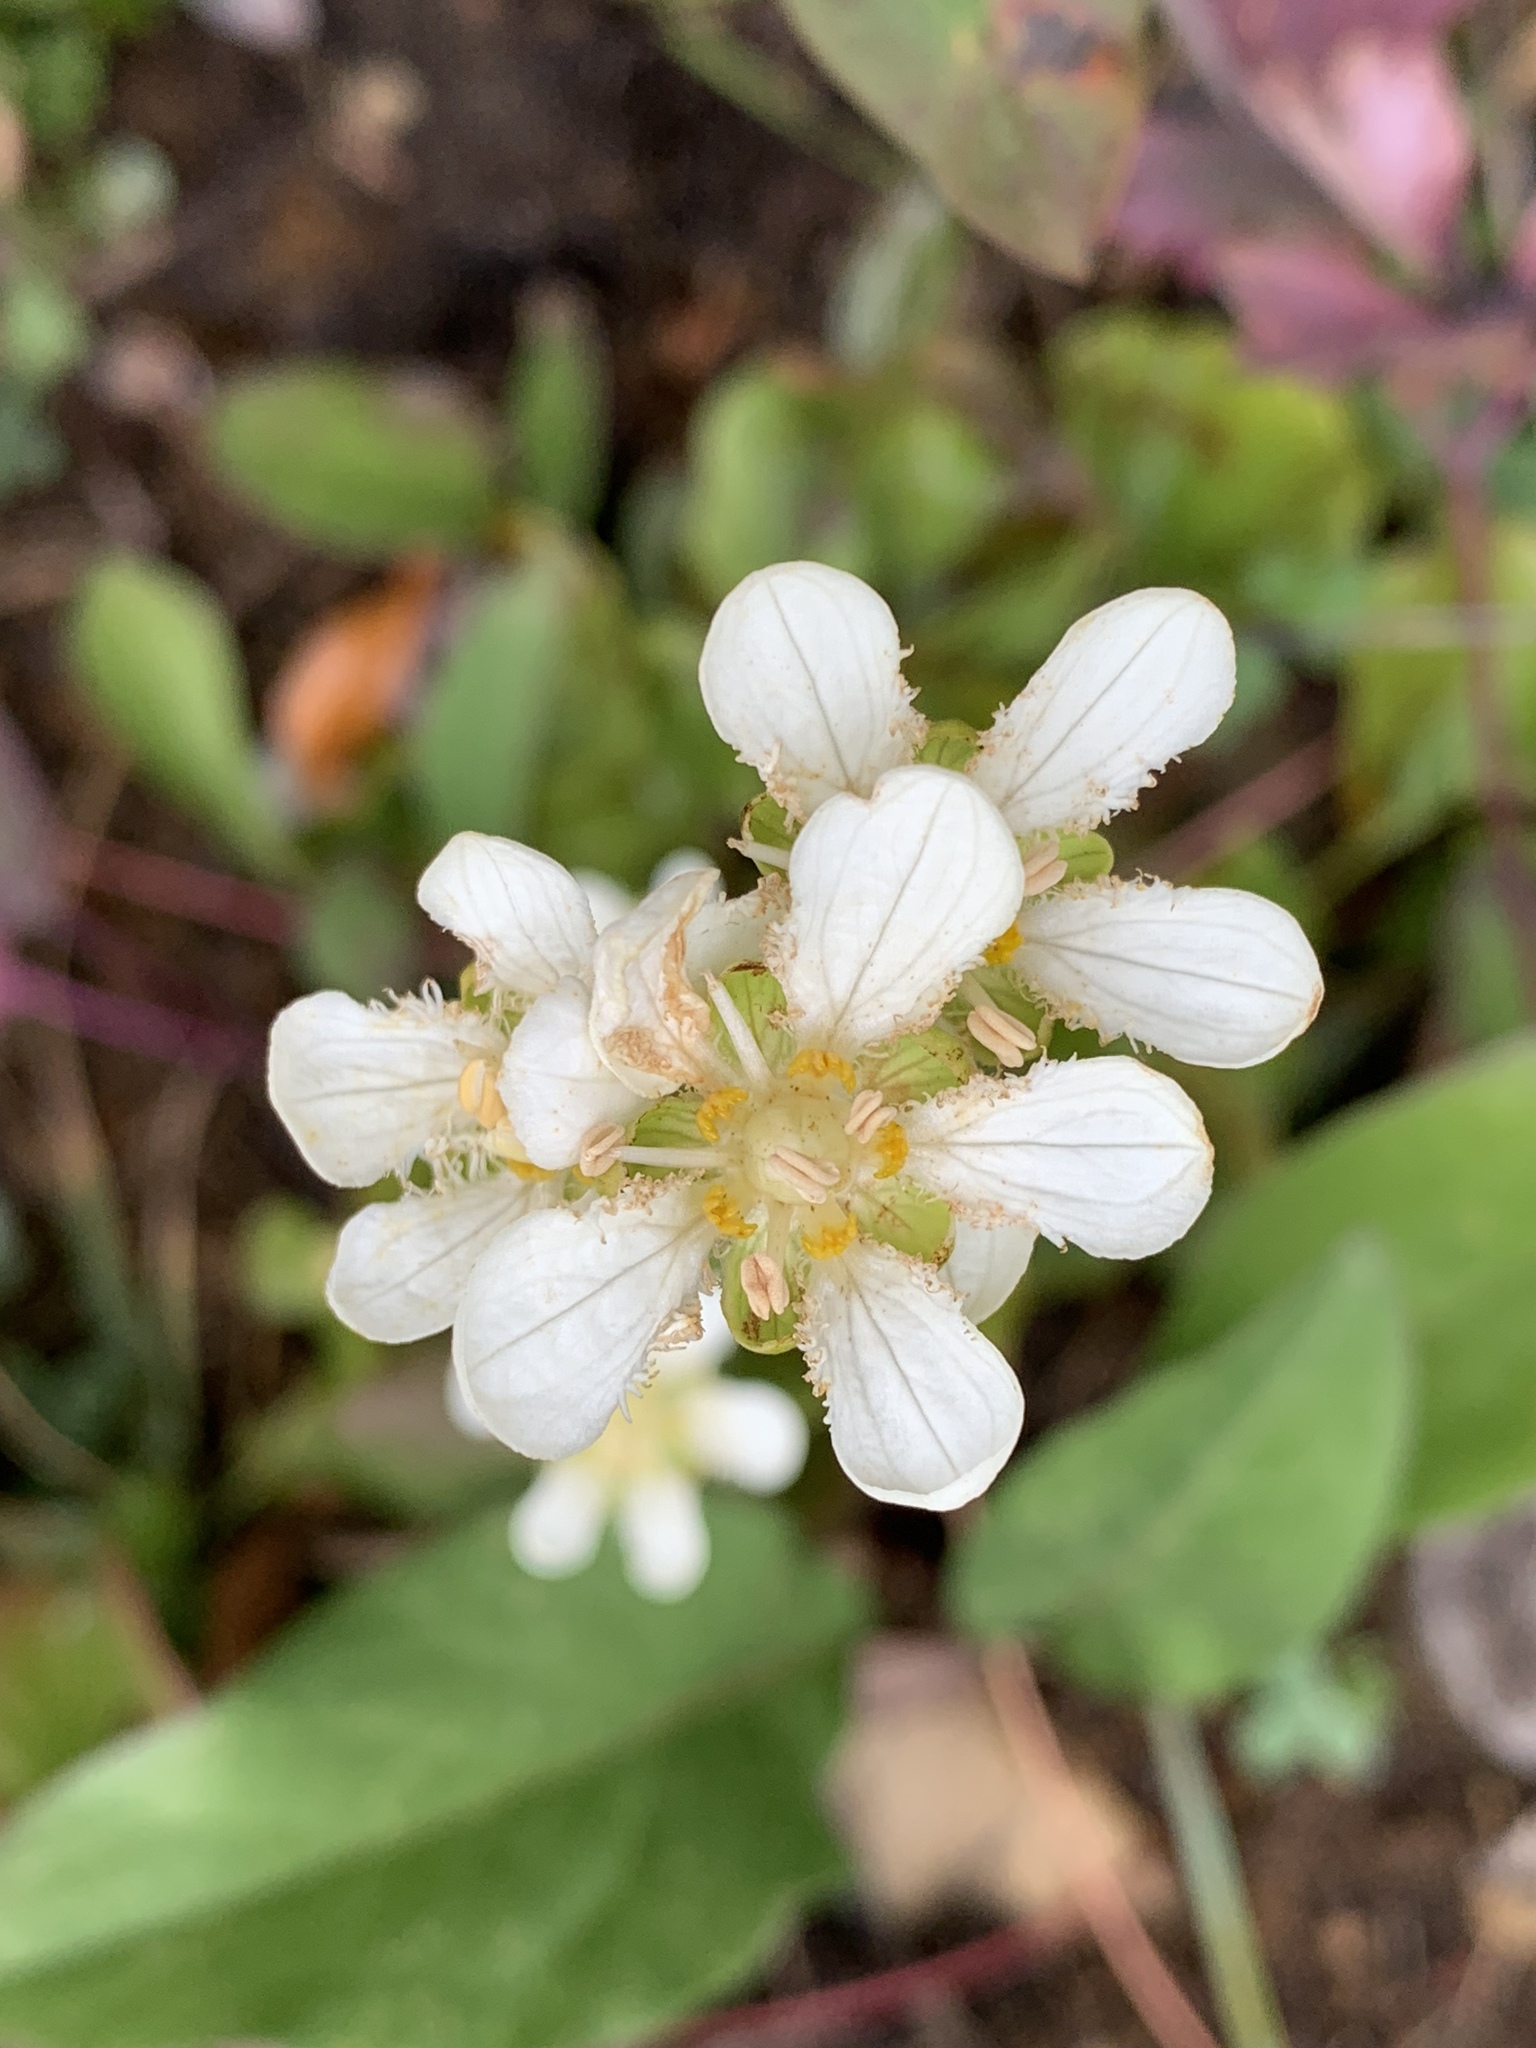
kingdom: Plantae
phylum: Tracheophyta
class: Magnoliopsida
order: Celastrales
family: Parnassiaceae
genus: Parnassia
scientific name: Parnassia fimbriata
